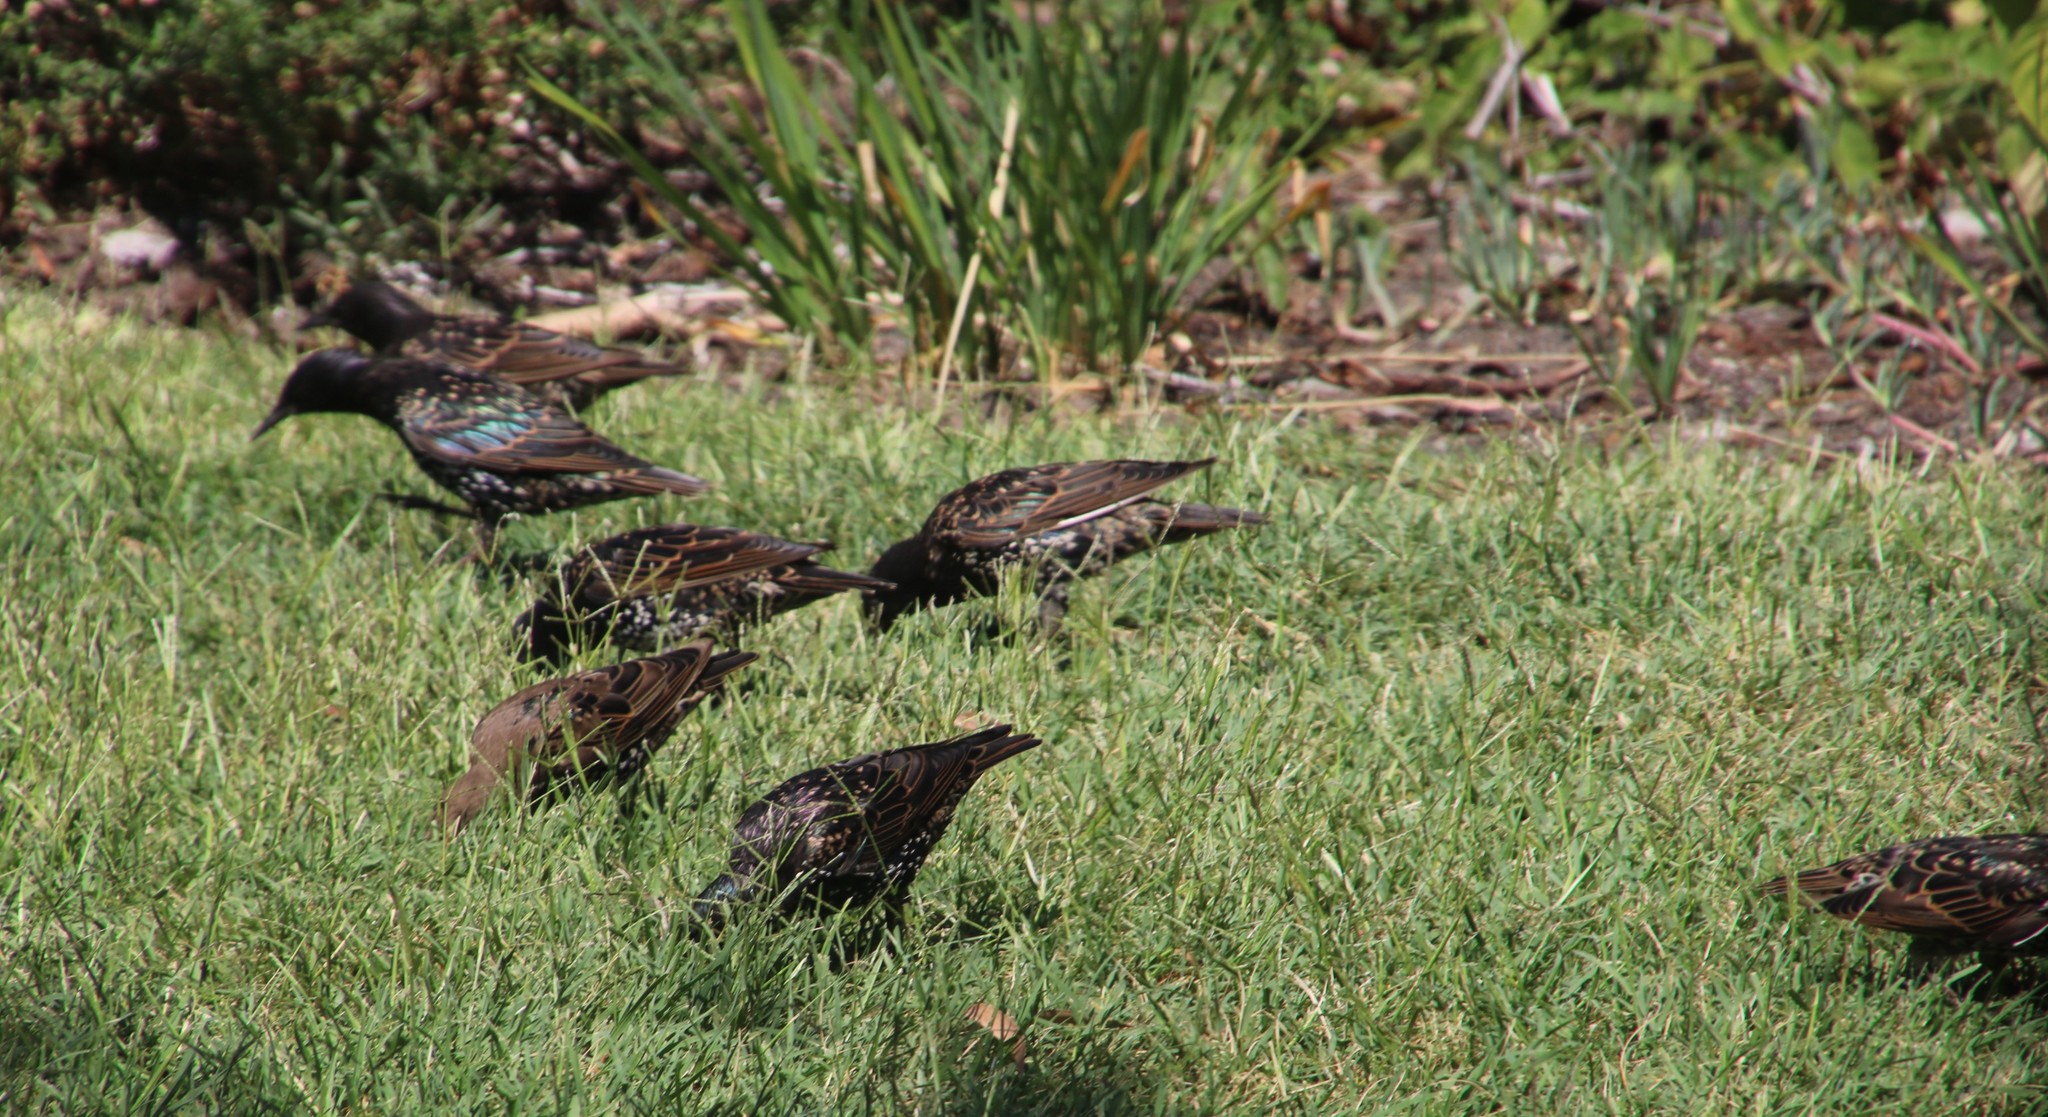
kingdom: Animalia
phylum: Chordata
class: Aves
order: Passeriformes
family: Sturnidae
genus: Sturnus
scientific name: Sturnus vulgaris
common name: Common starling
